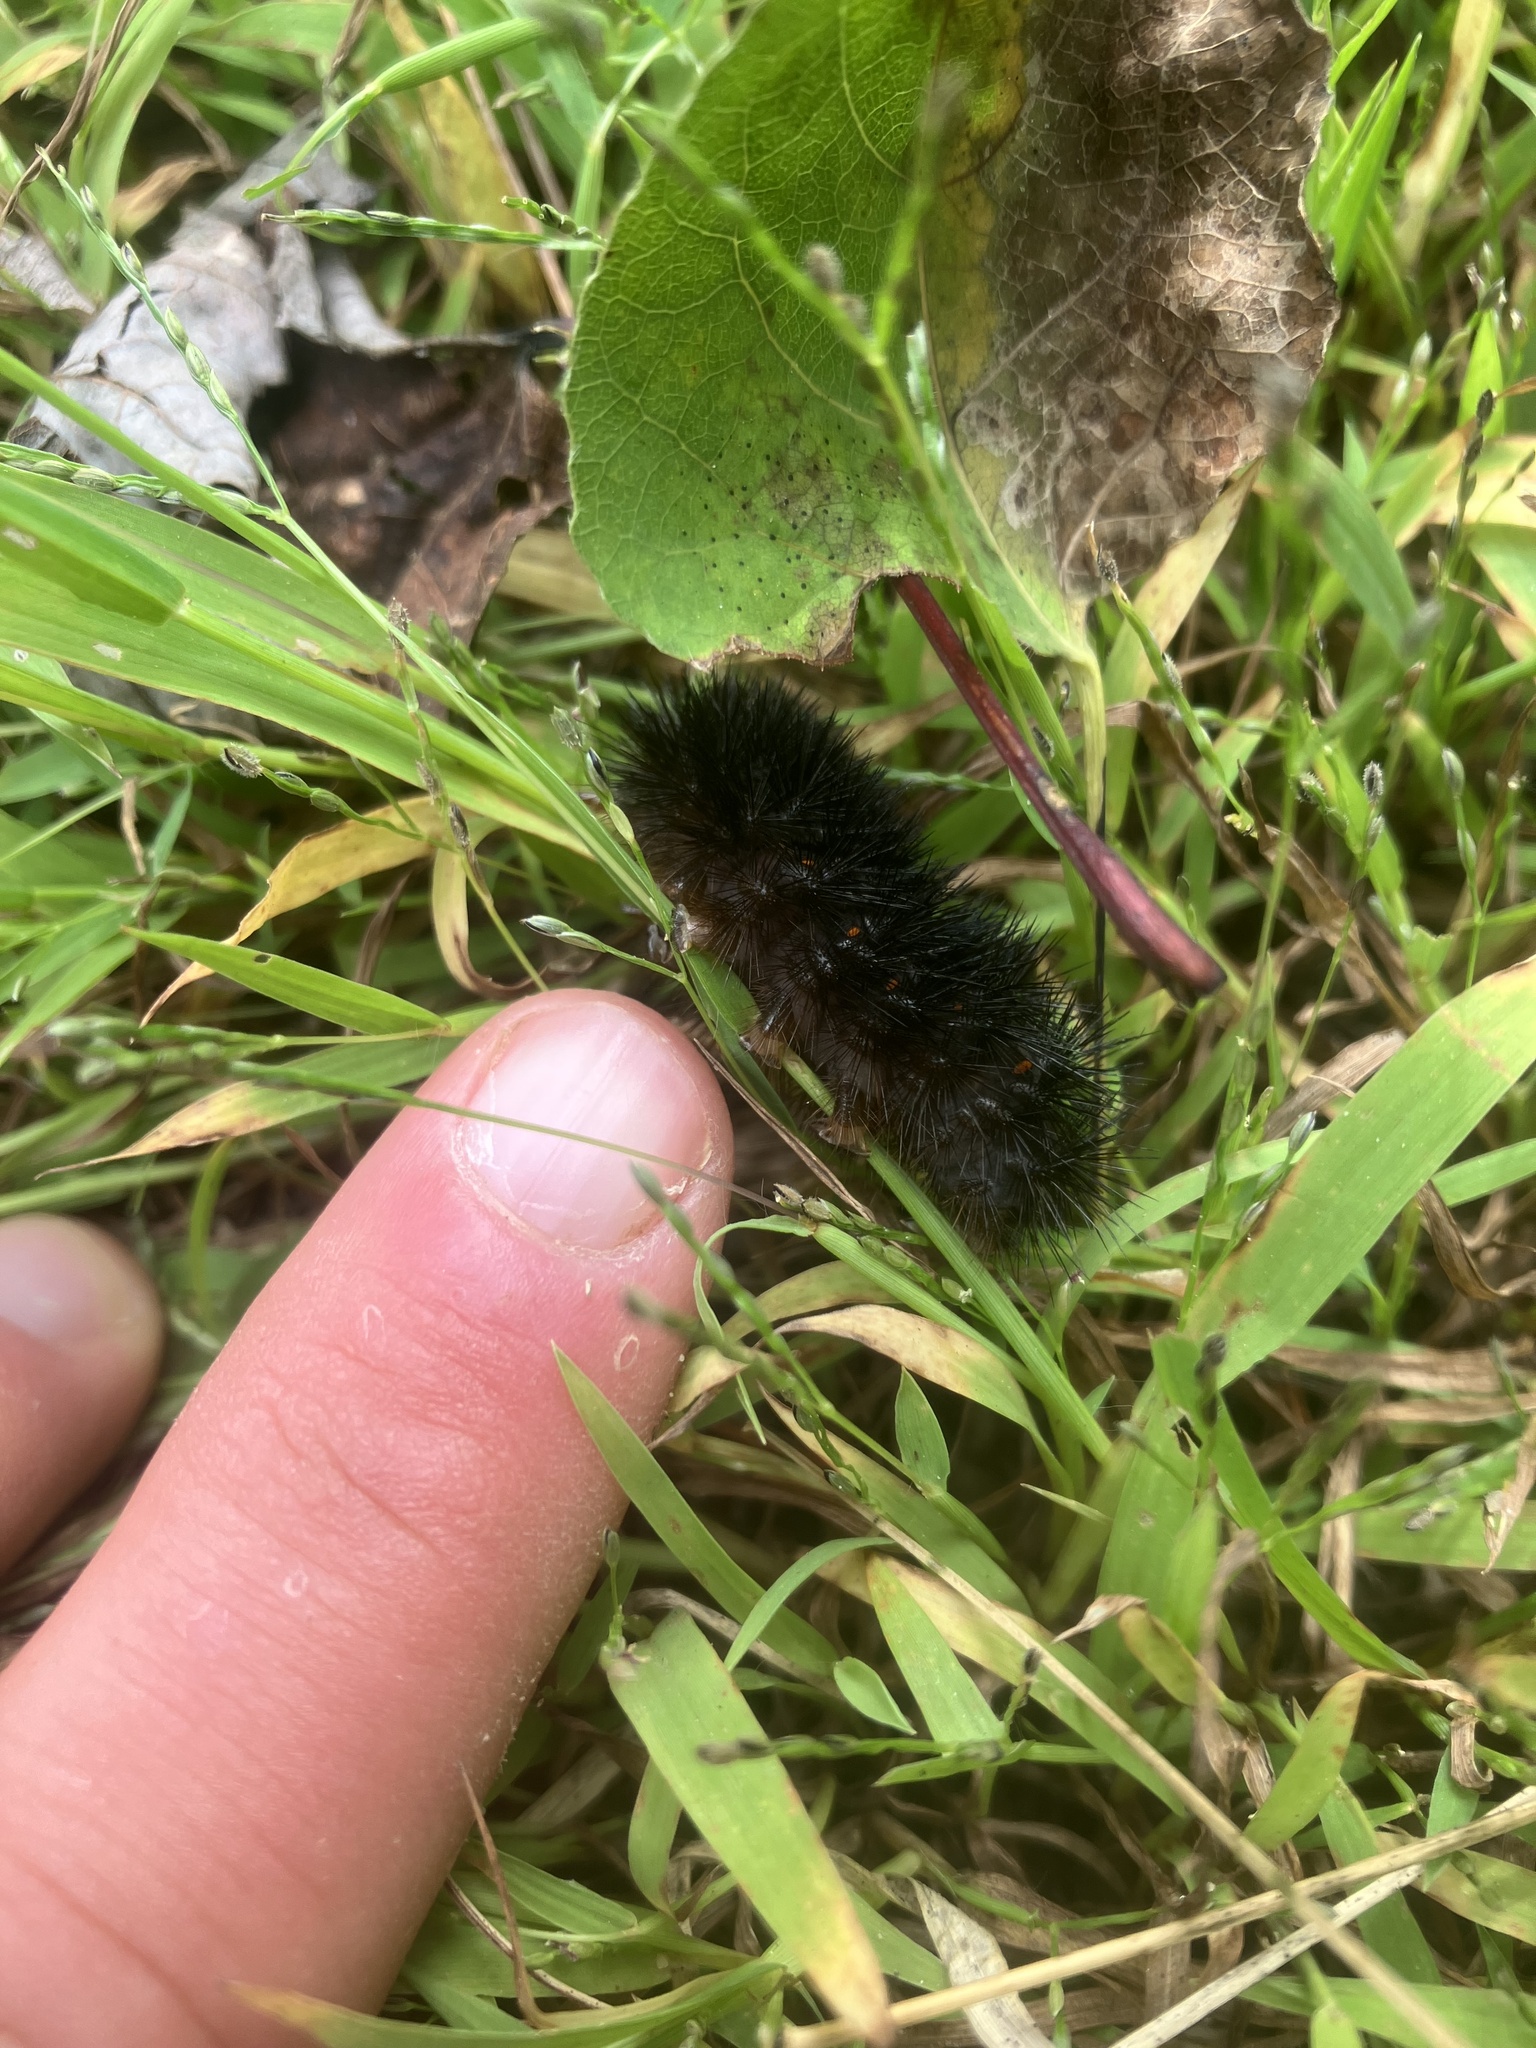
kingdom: Animalia
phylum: Arthropoda
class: Insecta
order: Lepidoptera
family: Erebidae
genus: Hypercompe
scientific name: Hypercompe scribonia
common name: Giant leopard moth
